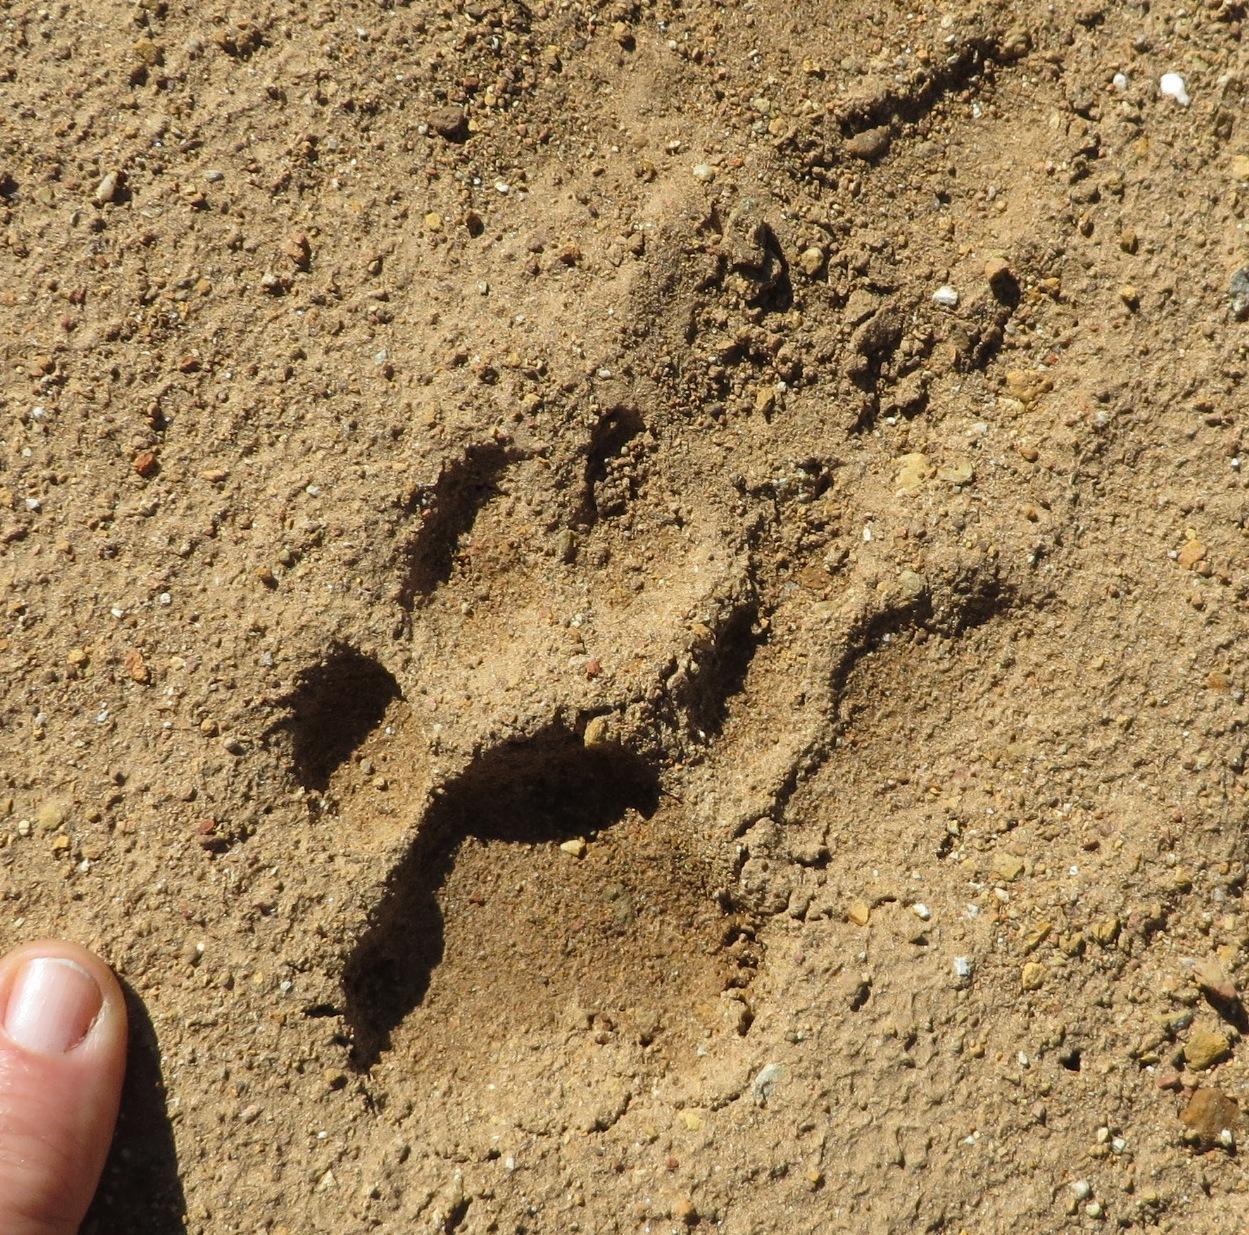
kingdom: Animalia
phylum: Chordata
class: Mammalia
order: Carnivora
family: Felidae
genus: Panthera
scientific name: Panthera pardus
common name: Leopard
